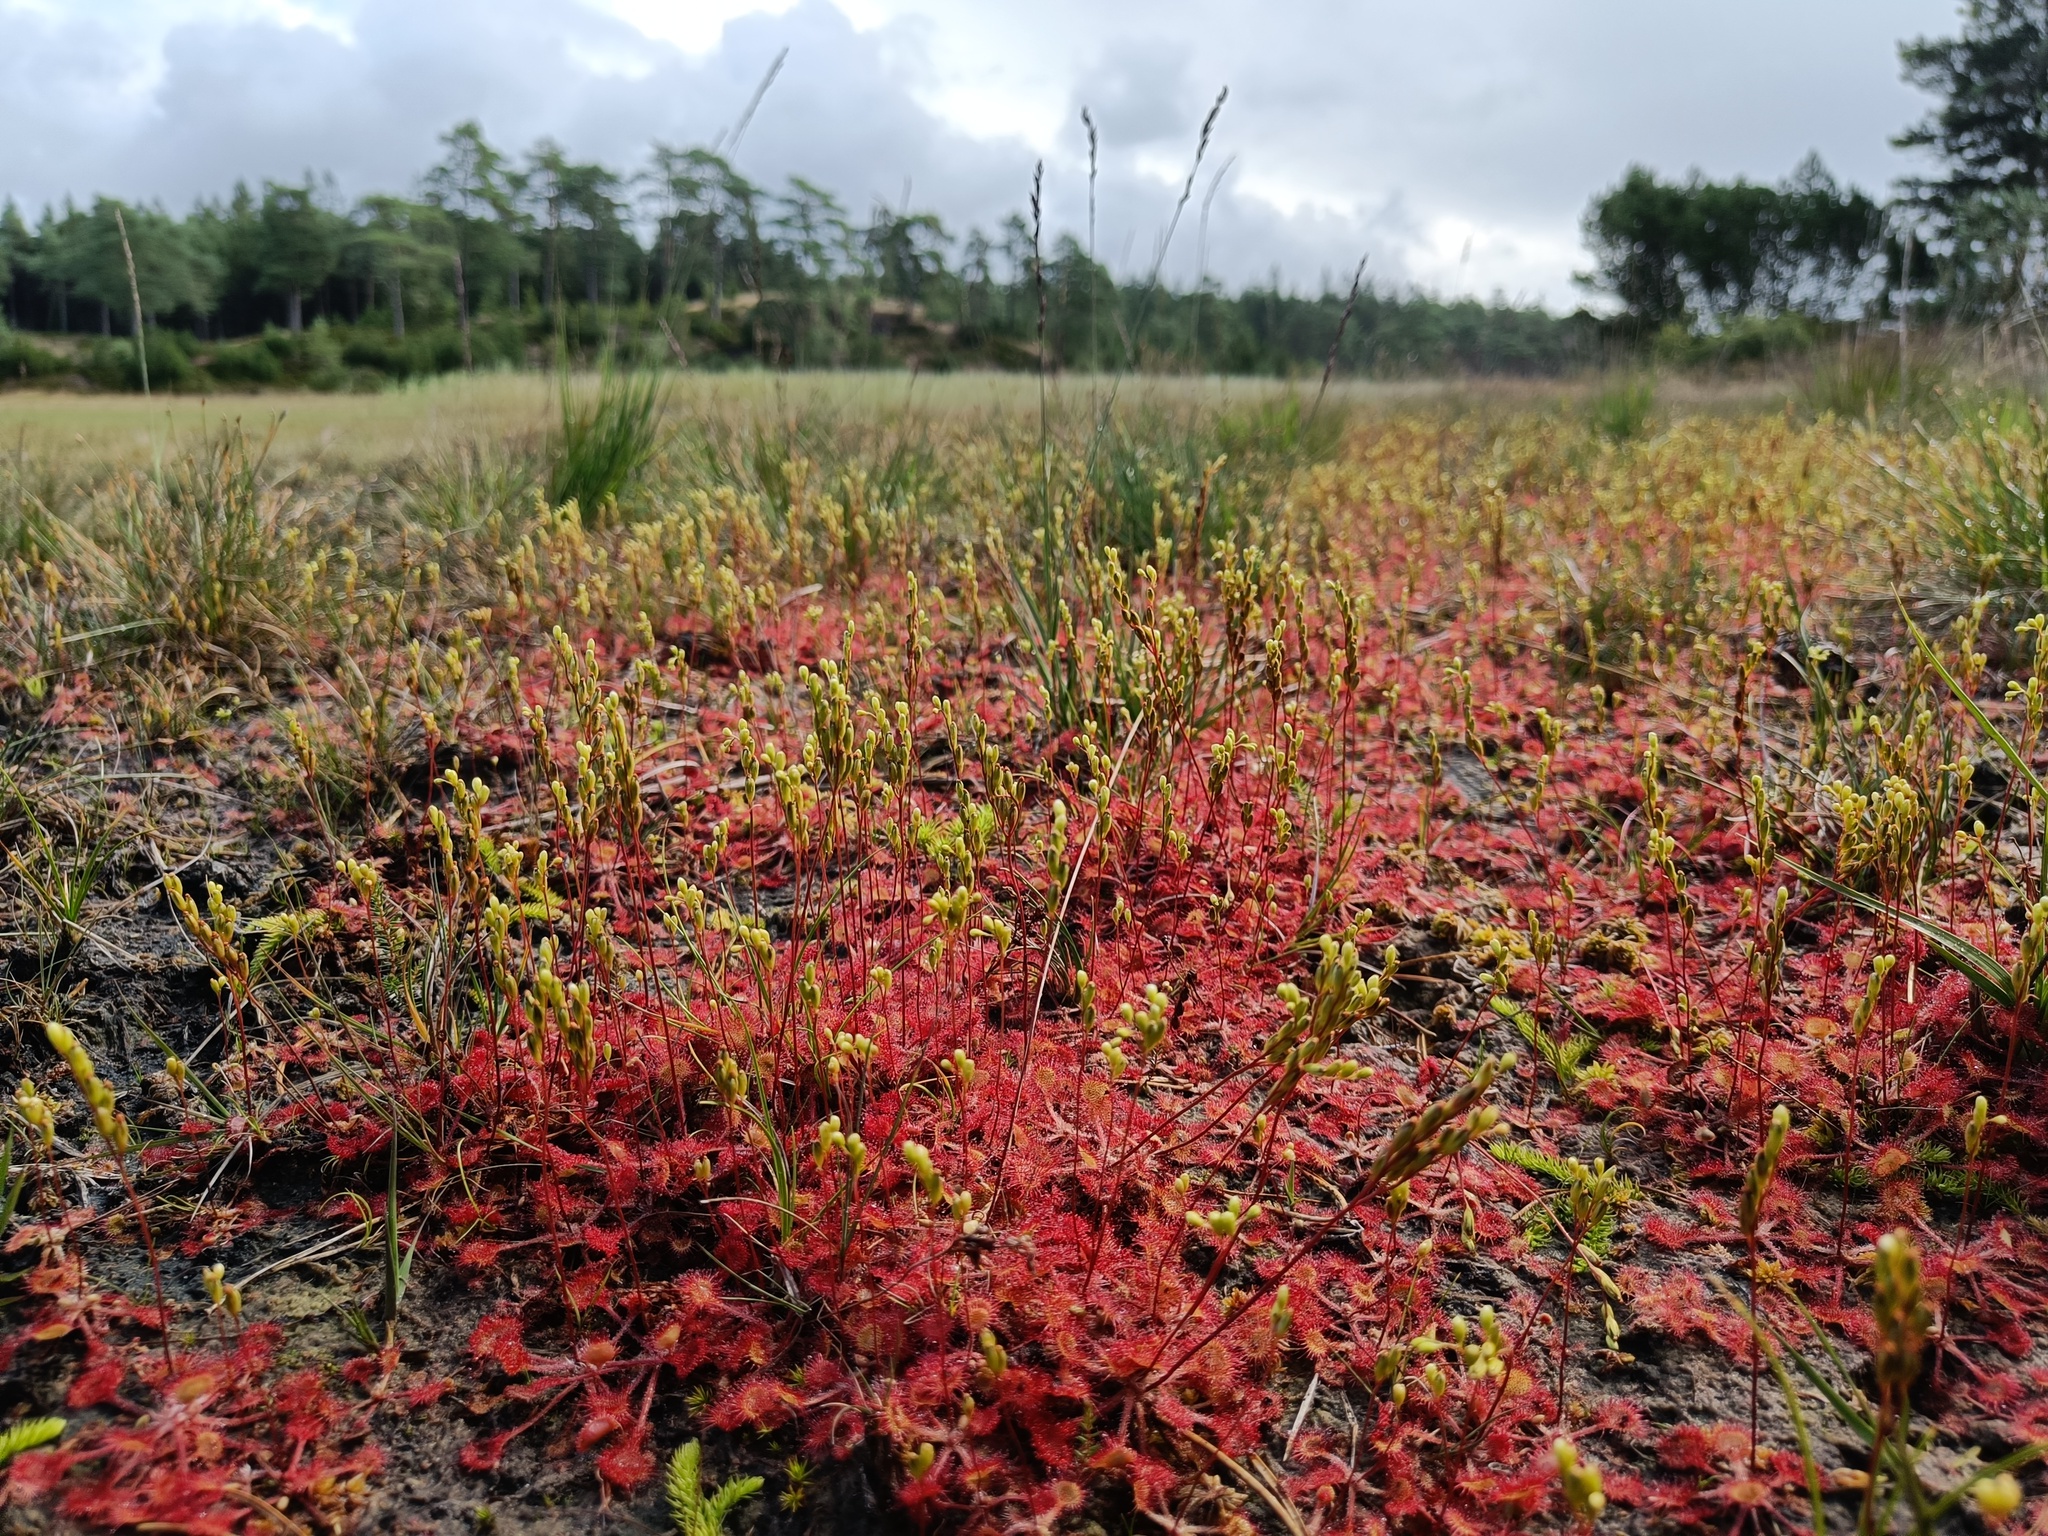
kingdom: Plantae
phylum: Tracheophyta
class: Magnoliopsida
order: Caryophyllales
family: Droseraceae
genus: Drosera
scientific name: Drosera rotundifolia
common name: Round-leaved sundew
